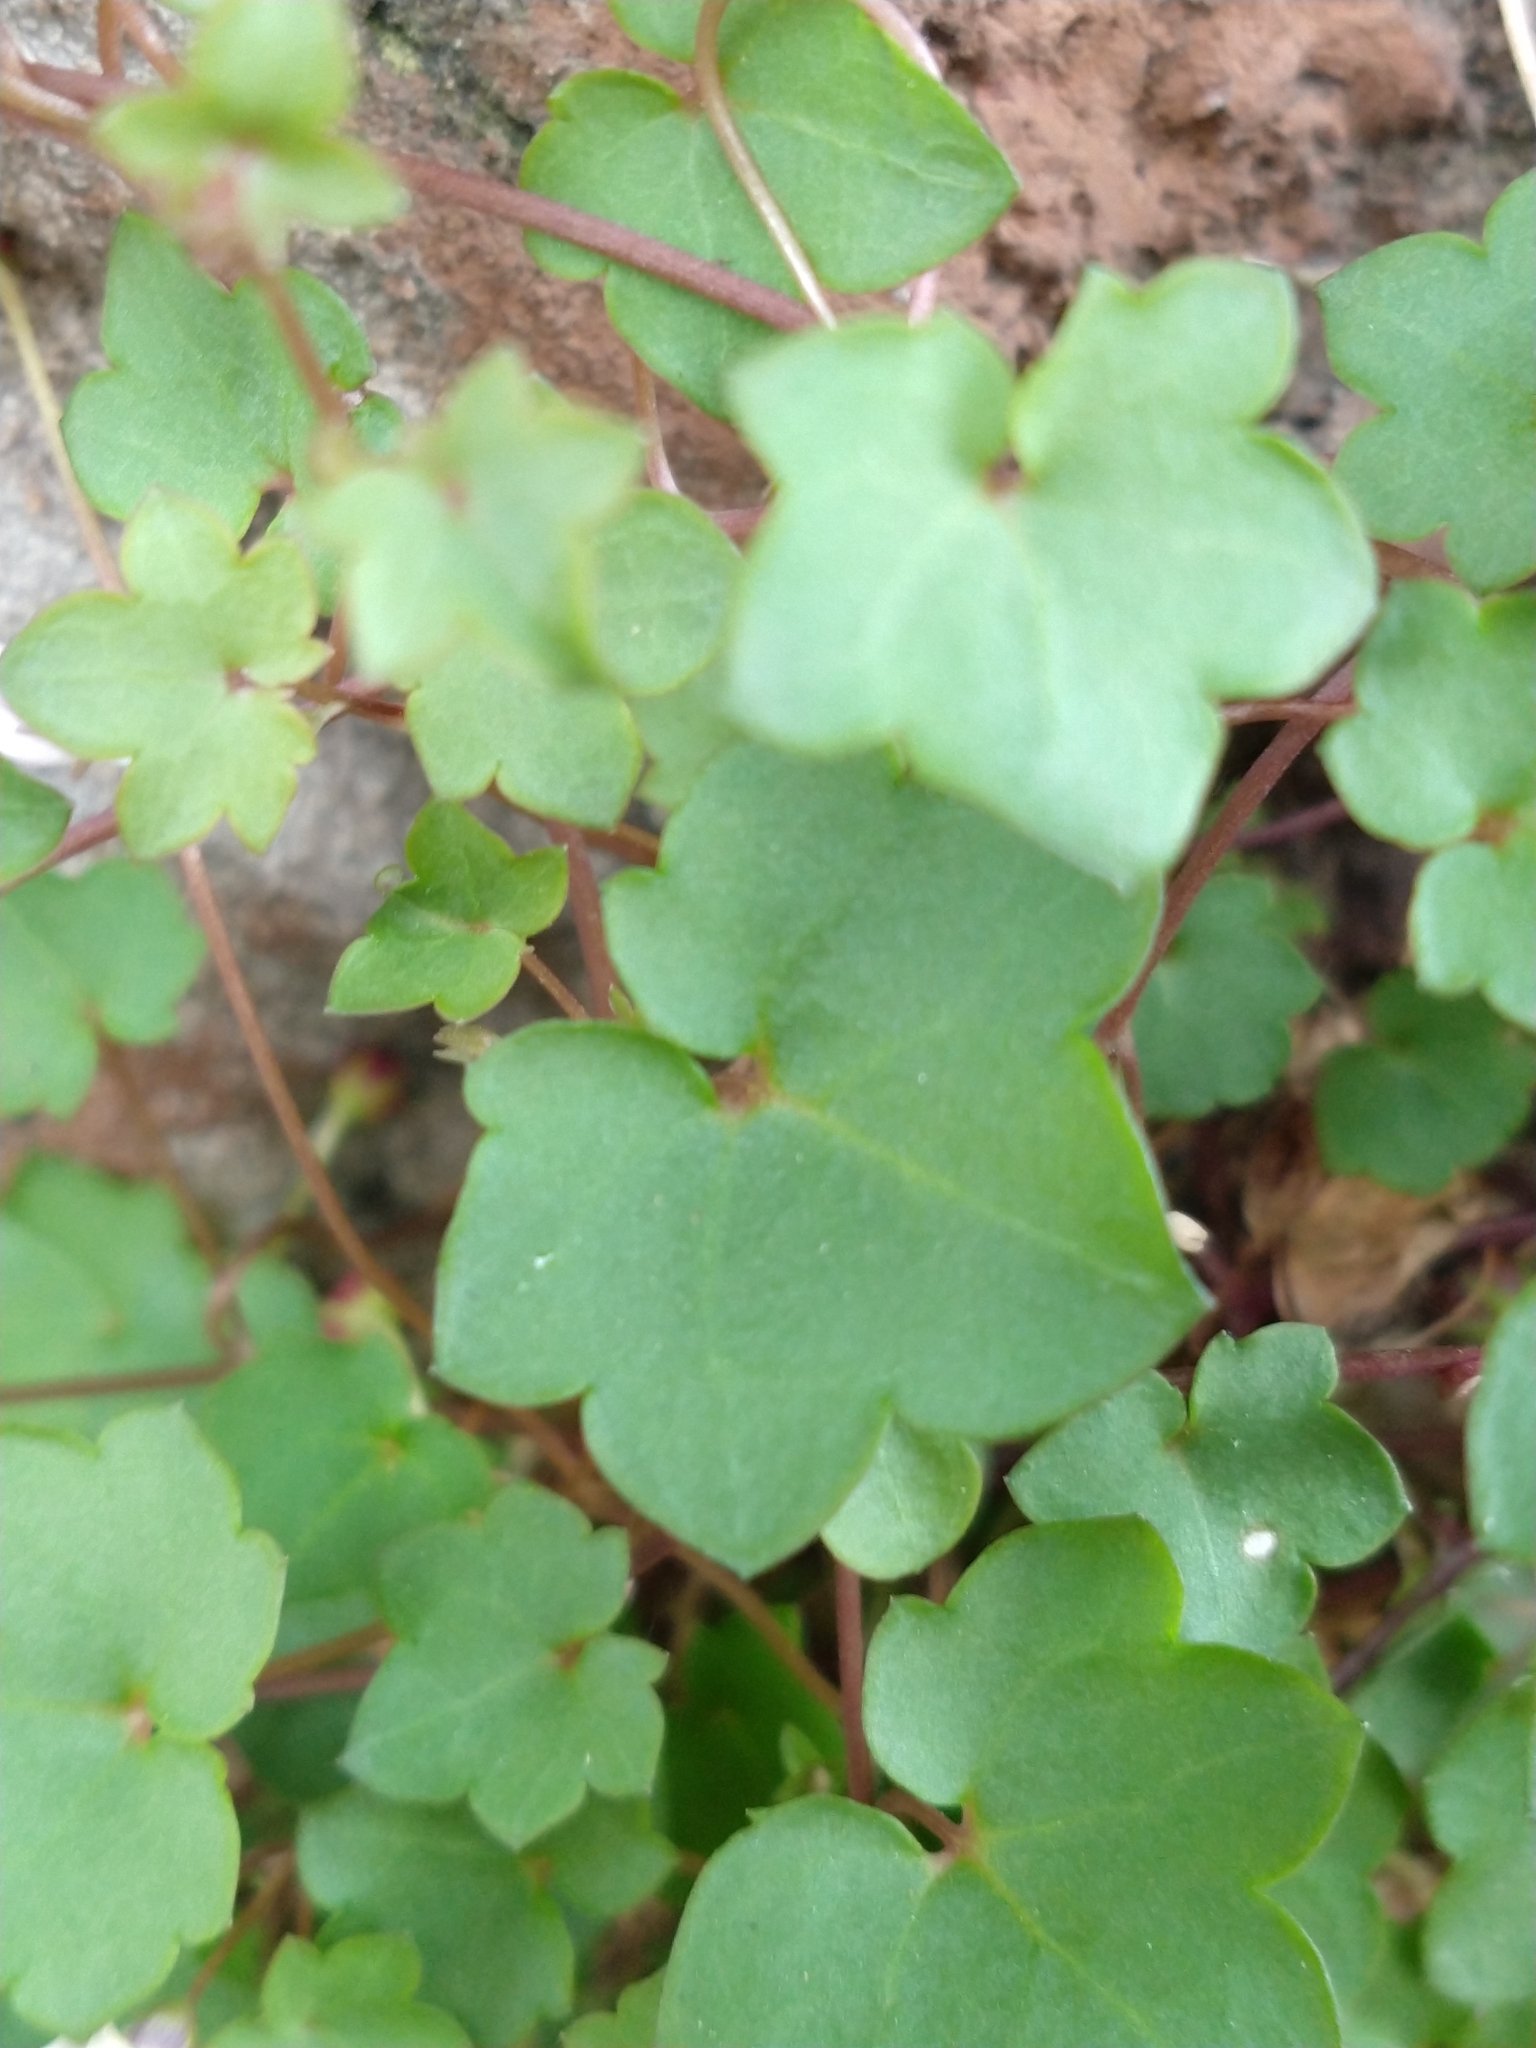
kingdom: Plantae
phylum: Tracheophyta
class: Magnoliopsida
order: Lamiales
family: Plantaginaceae
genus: Cymbalaria
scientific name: Cymbalaria muralis
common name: Ivy-leaved toadflax
